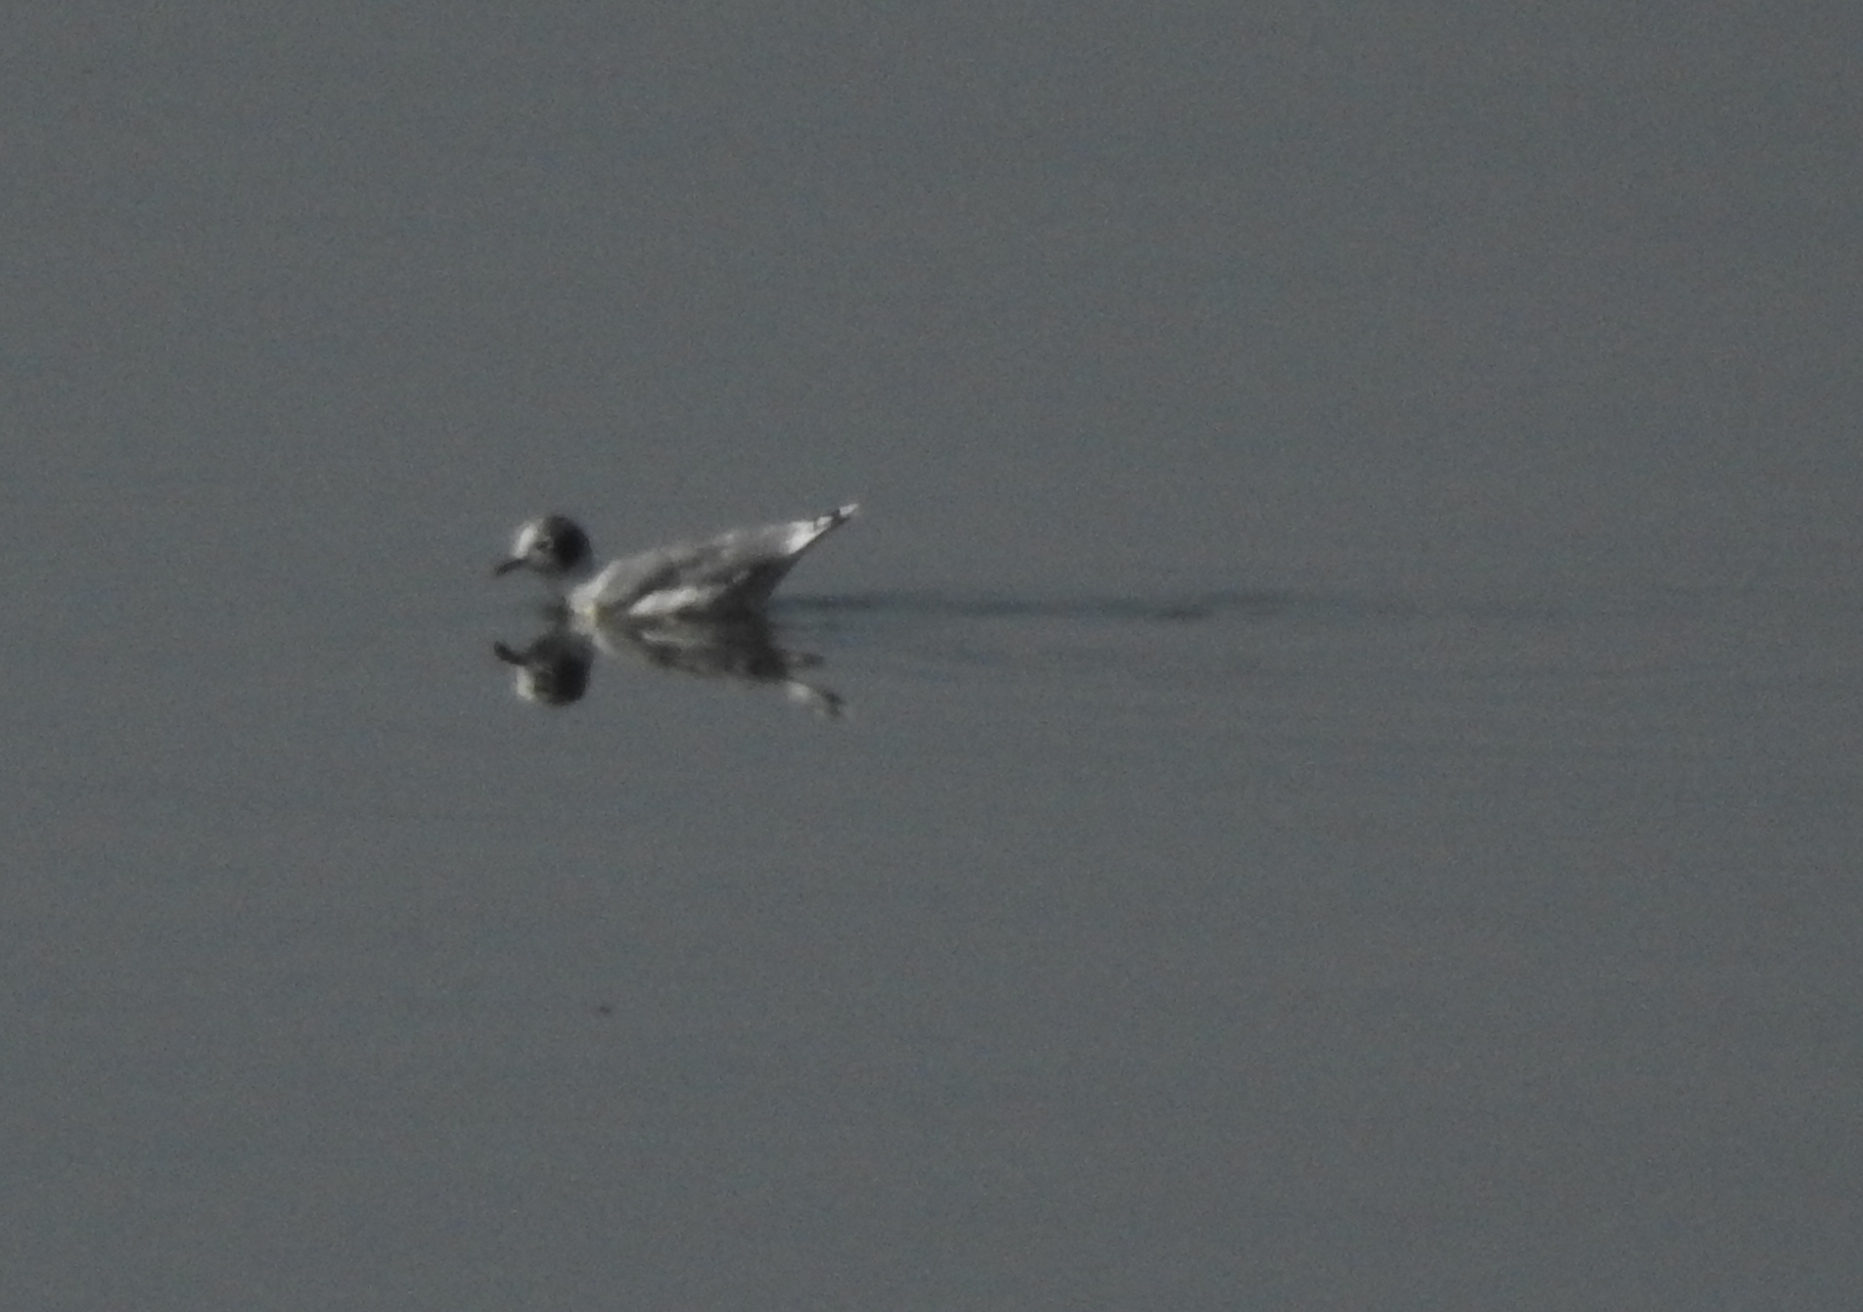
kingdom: Animalia
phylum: Chordata
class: Aves
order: Charadriiformes
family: Laridae
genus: Leucophaeus
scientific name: Leucophaeus pipixcan
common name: Franklin's gull
